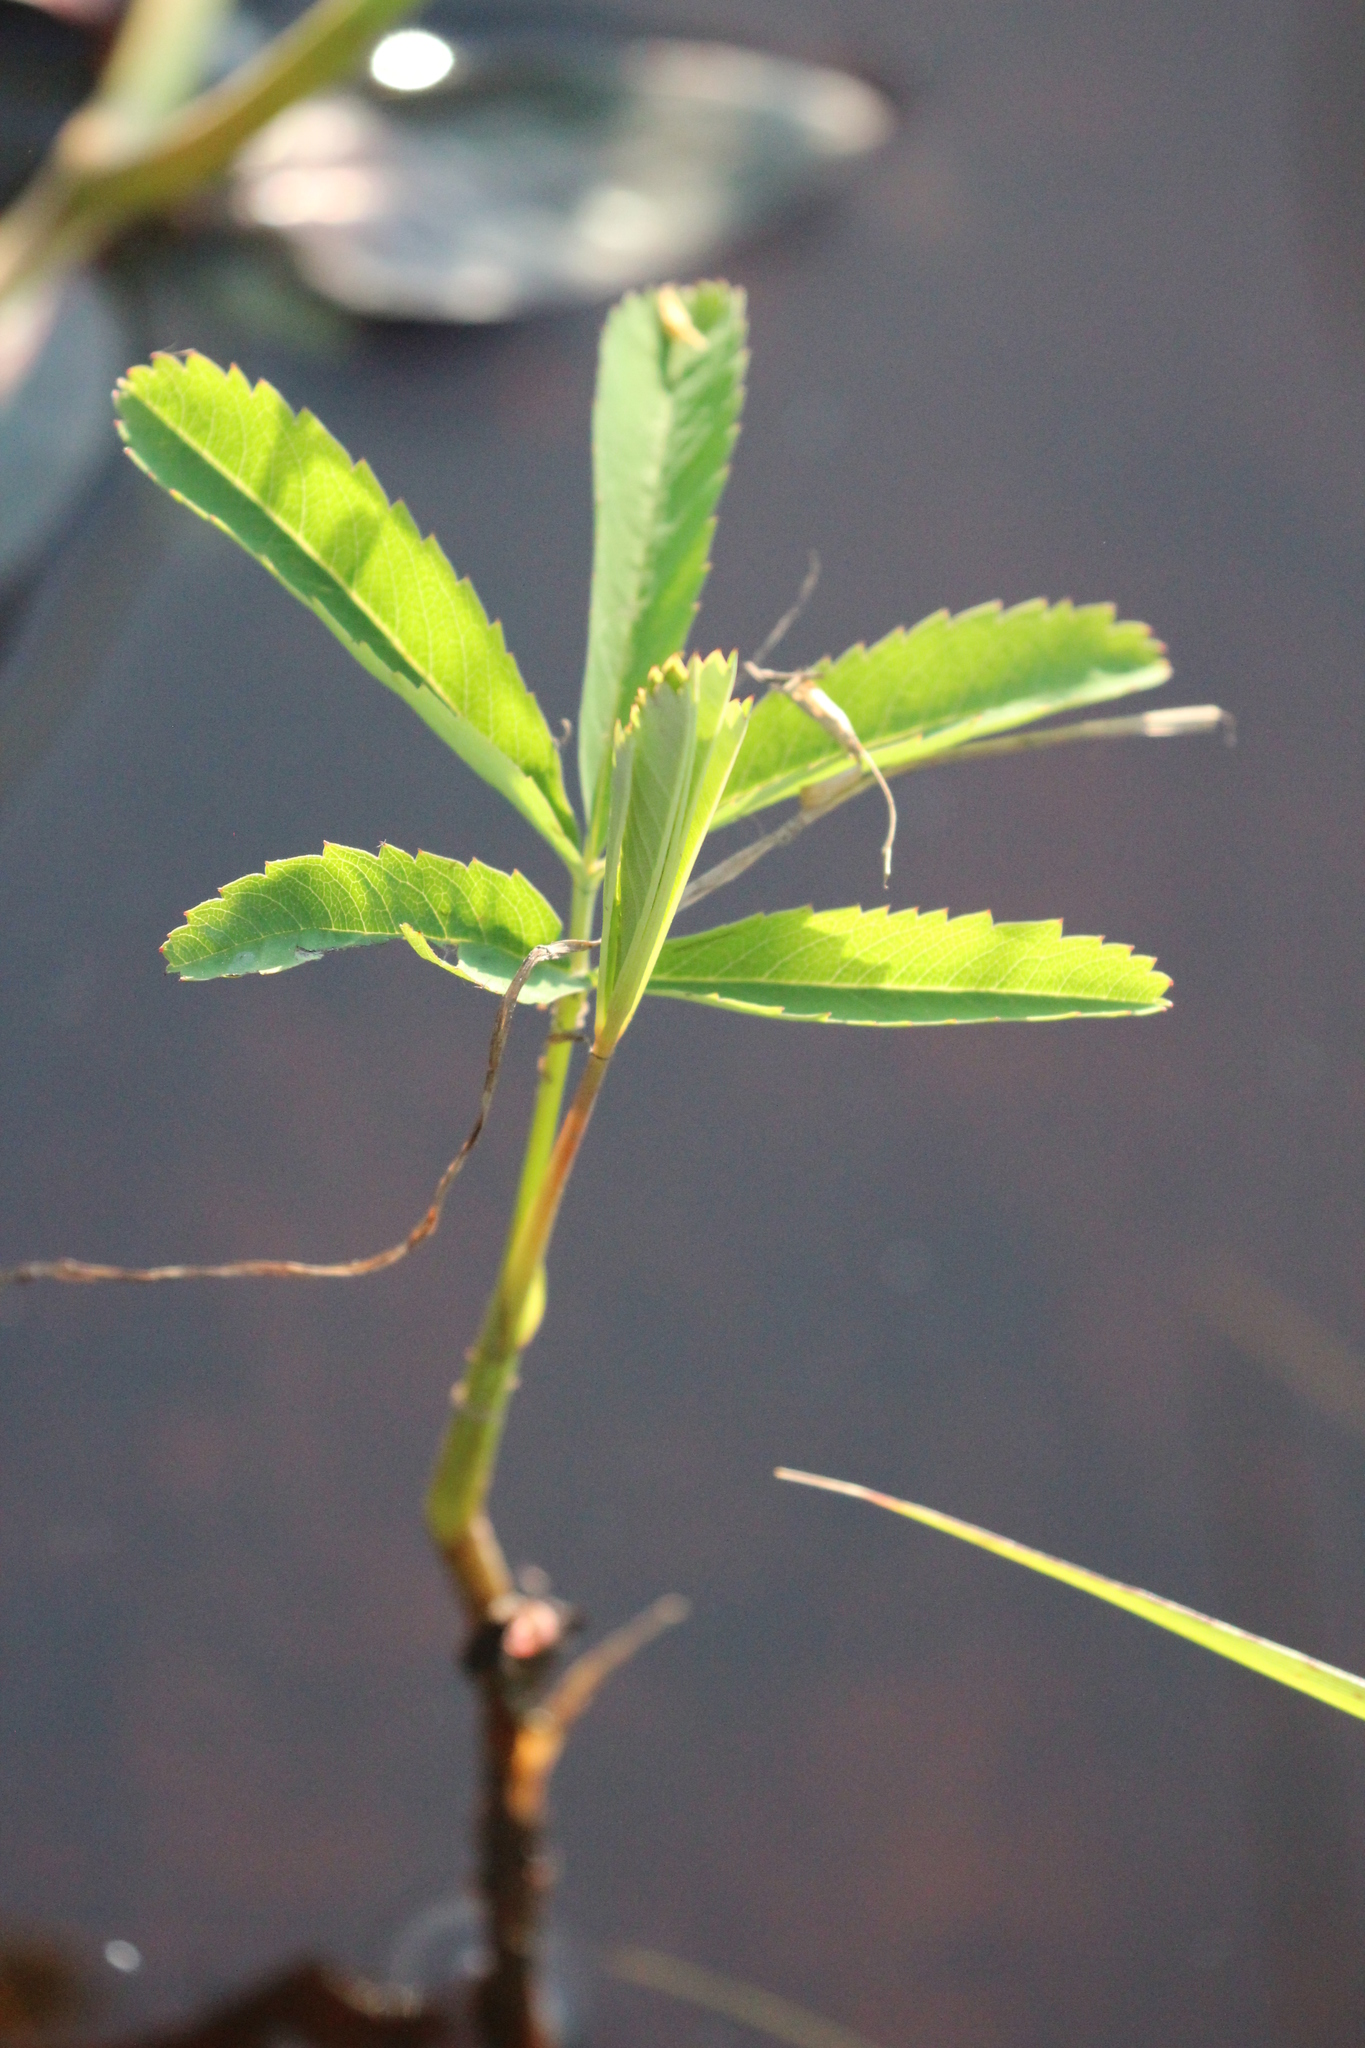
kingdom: Plantae
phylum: Tracheophyta
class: Magnoliopsida
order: Rosales
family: Rosaceae
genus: Comarum
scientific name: Comarum palustre
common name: Marsh cinquefoil
